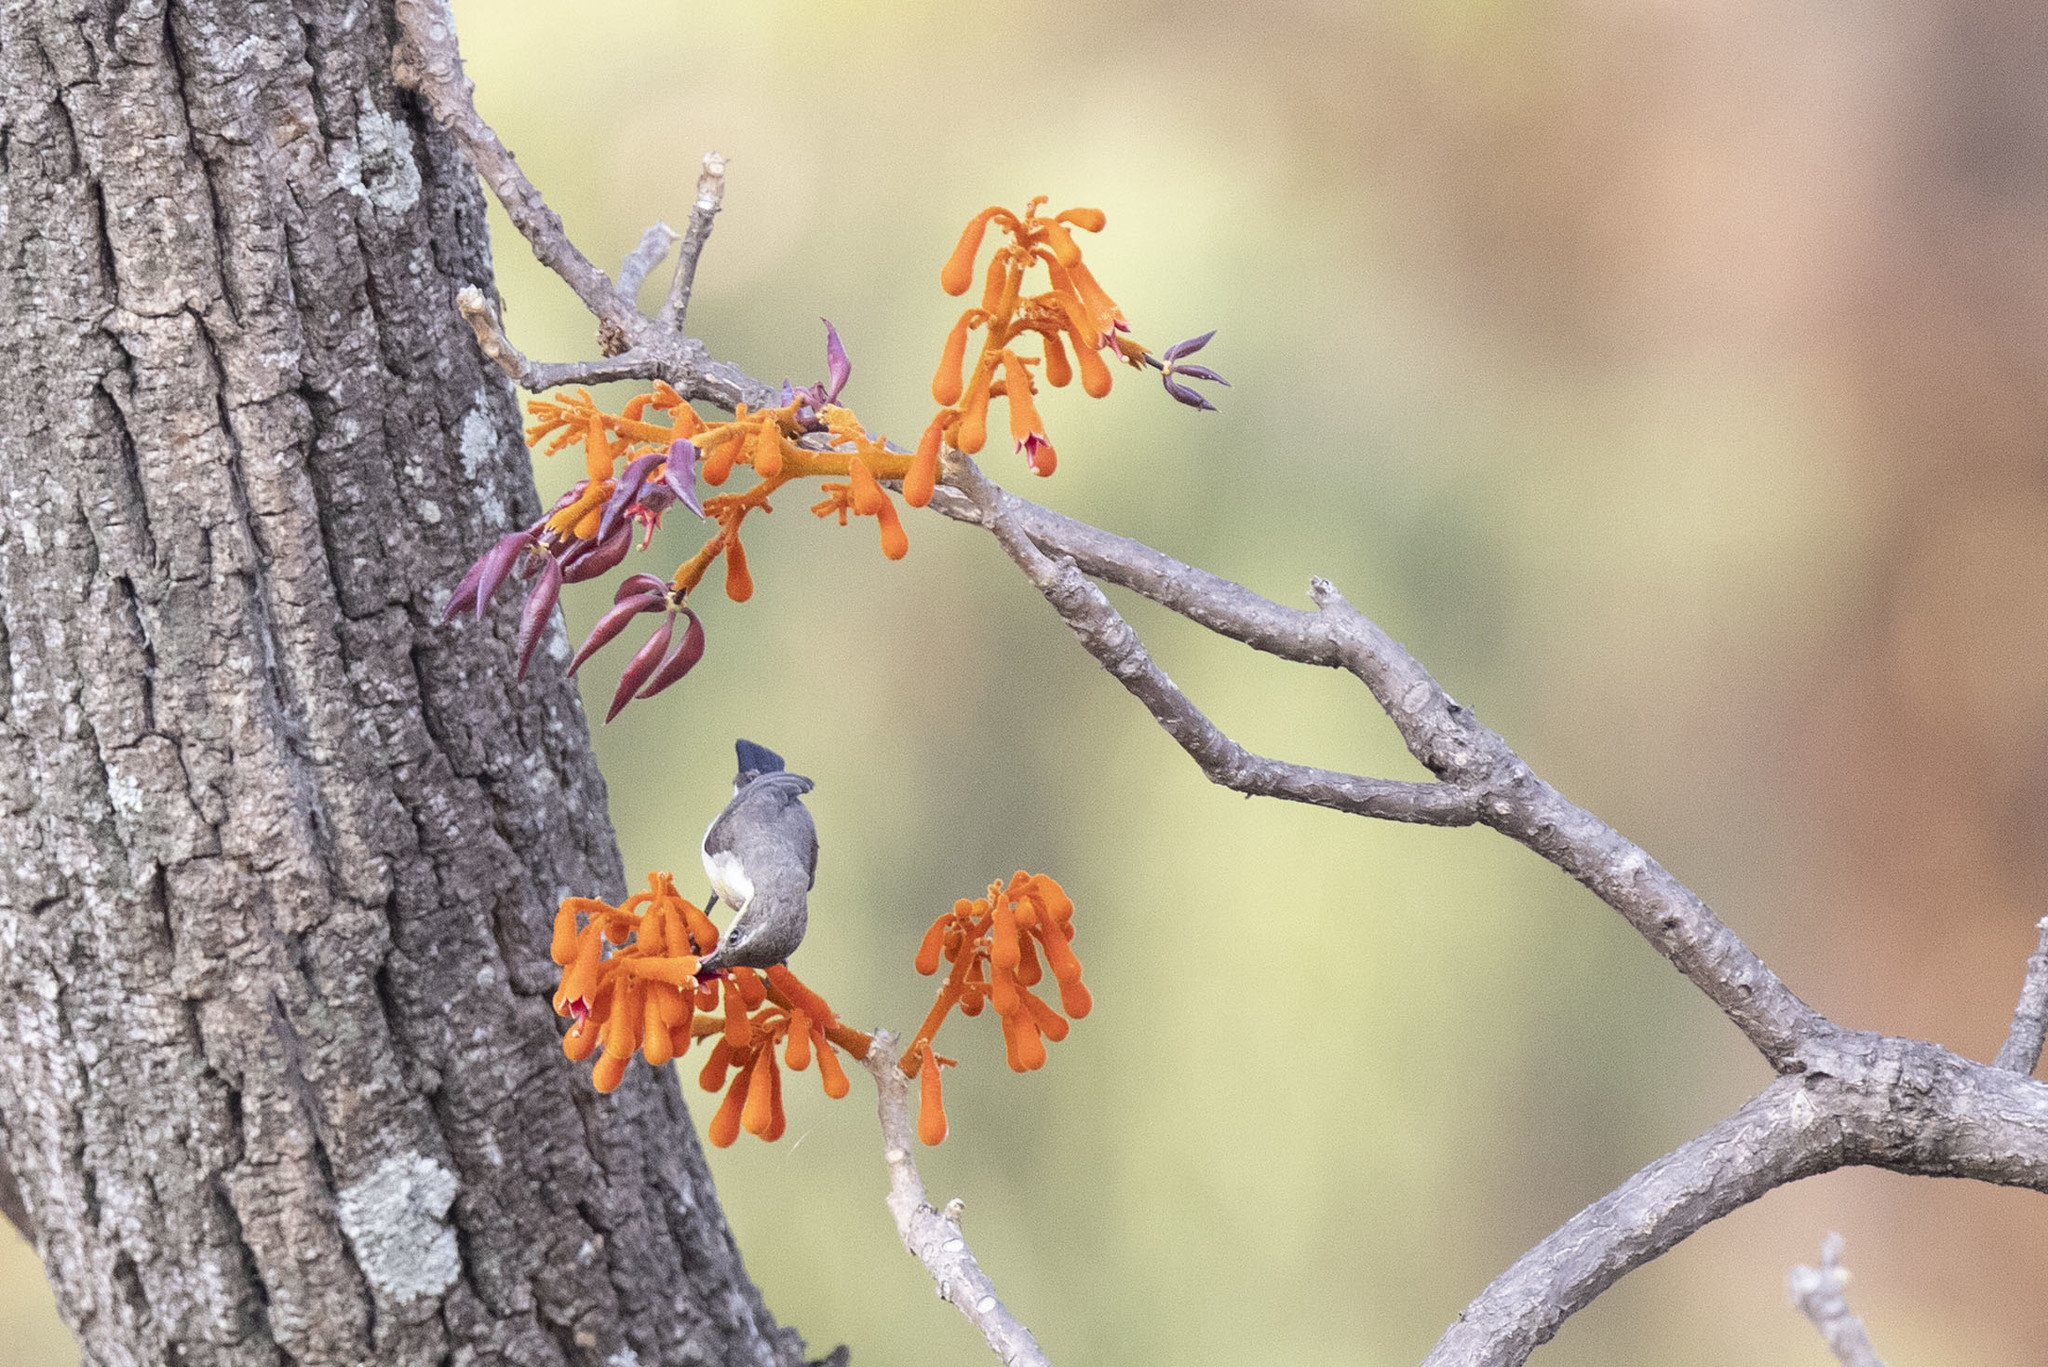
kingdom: Plantae
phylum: Tracheophyta
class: Magnoliopsida
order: Malvales
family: Malvaceae
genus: Firmiana
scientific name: Firmiana colorata
